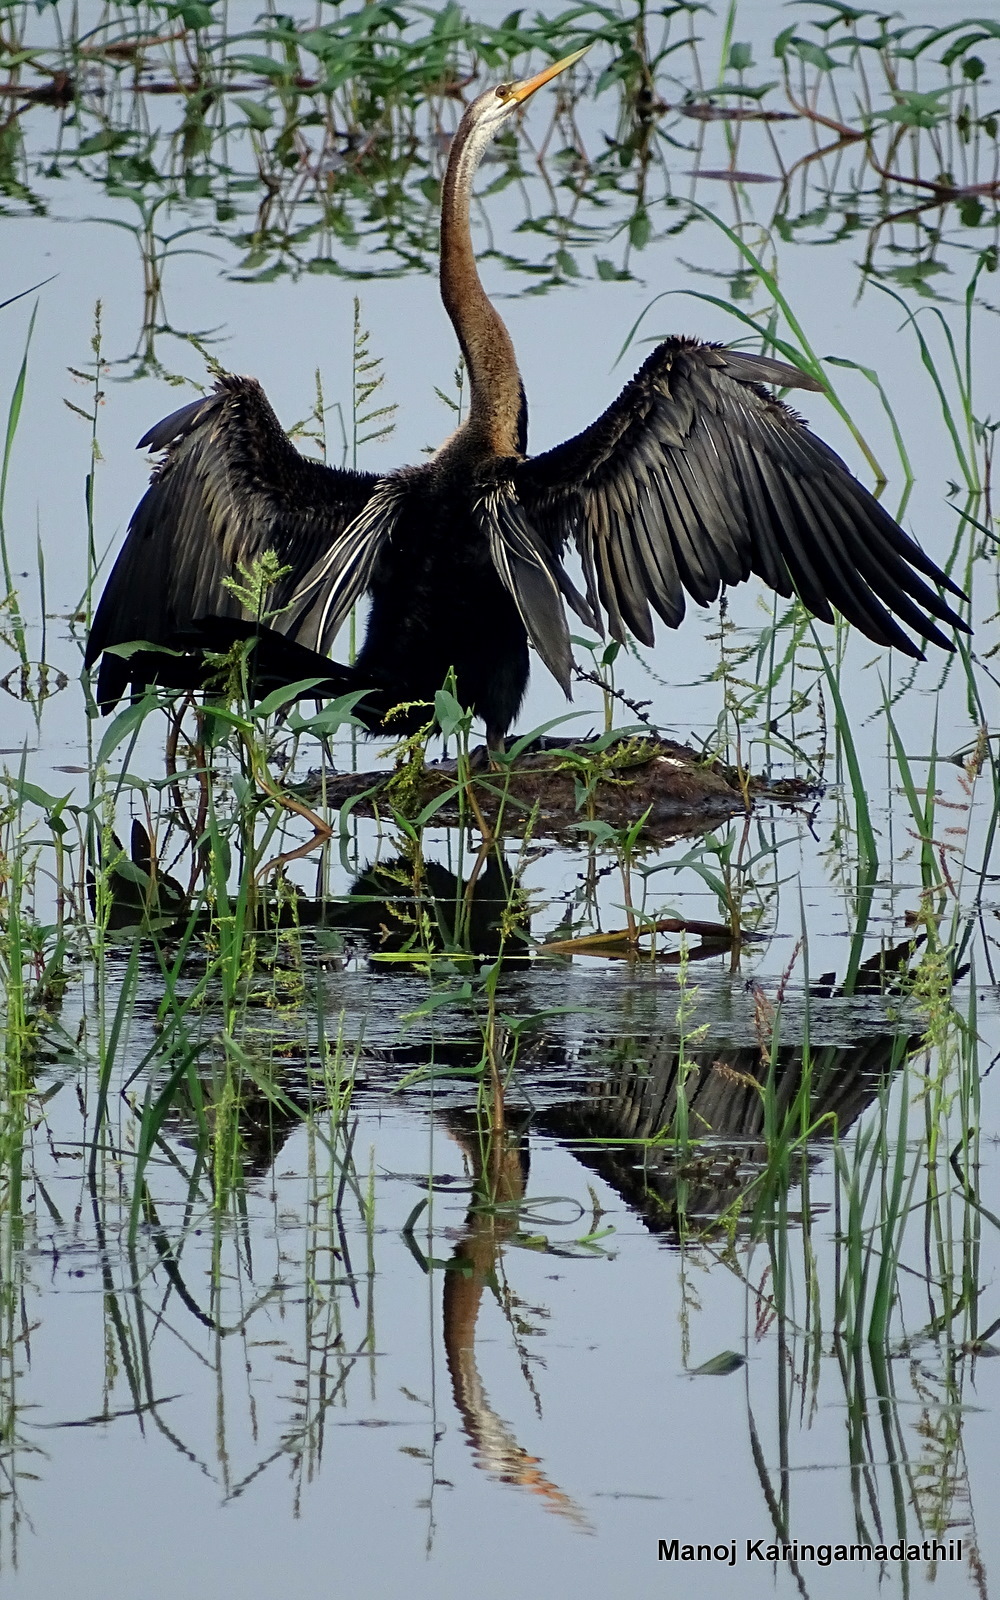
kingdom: Animalia
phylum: Chordata
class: Aves
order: Suliformes
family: Anhingidae
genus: Anhinga
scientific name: Anhinga melanogaster
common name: Oriental darter
